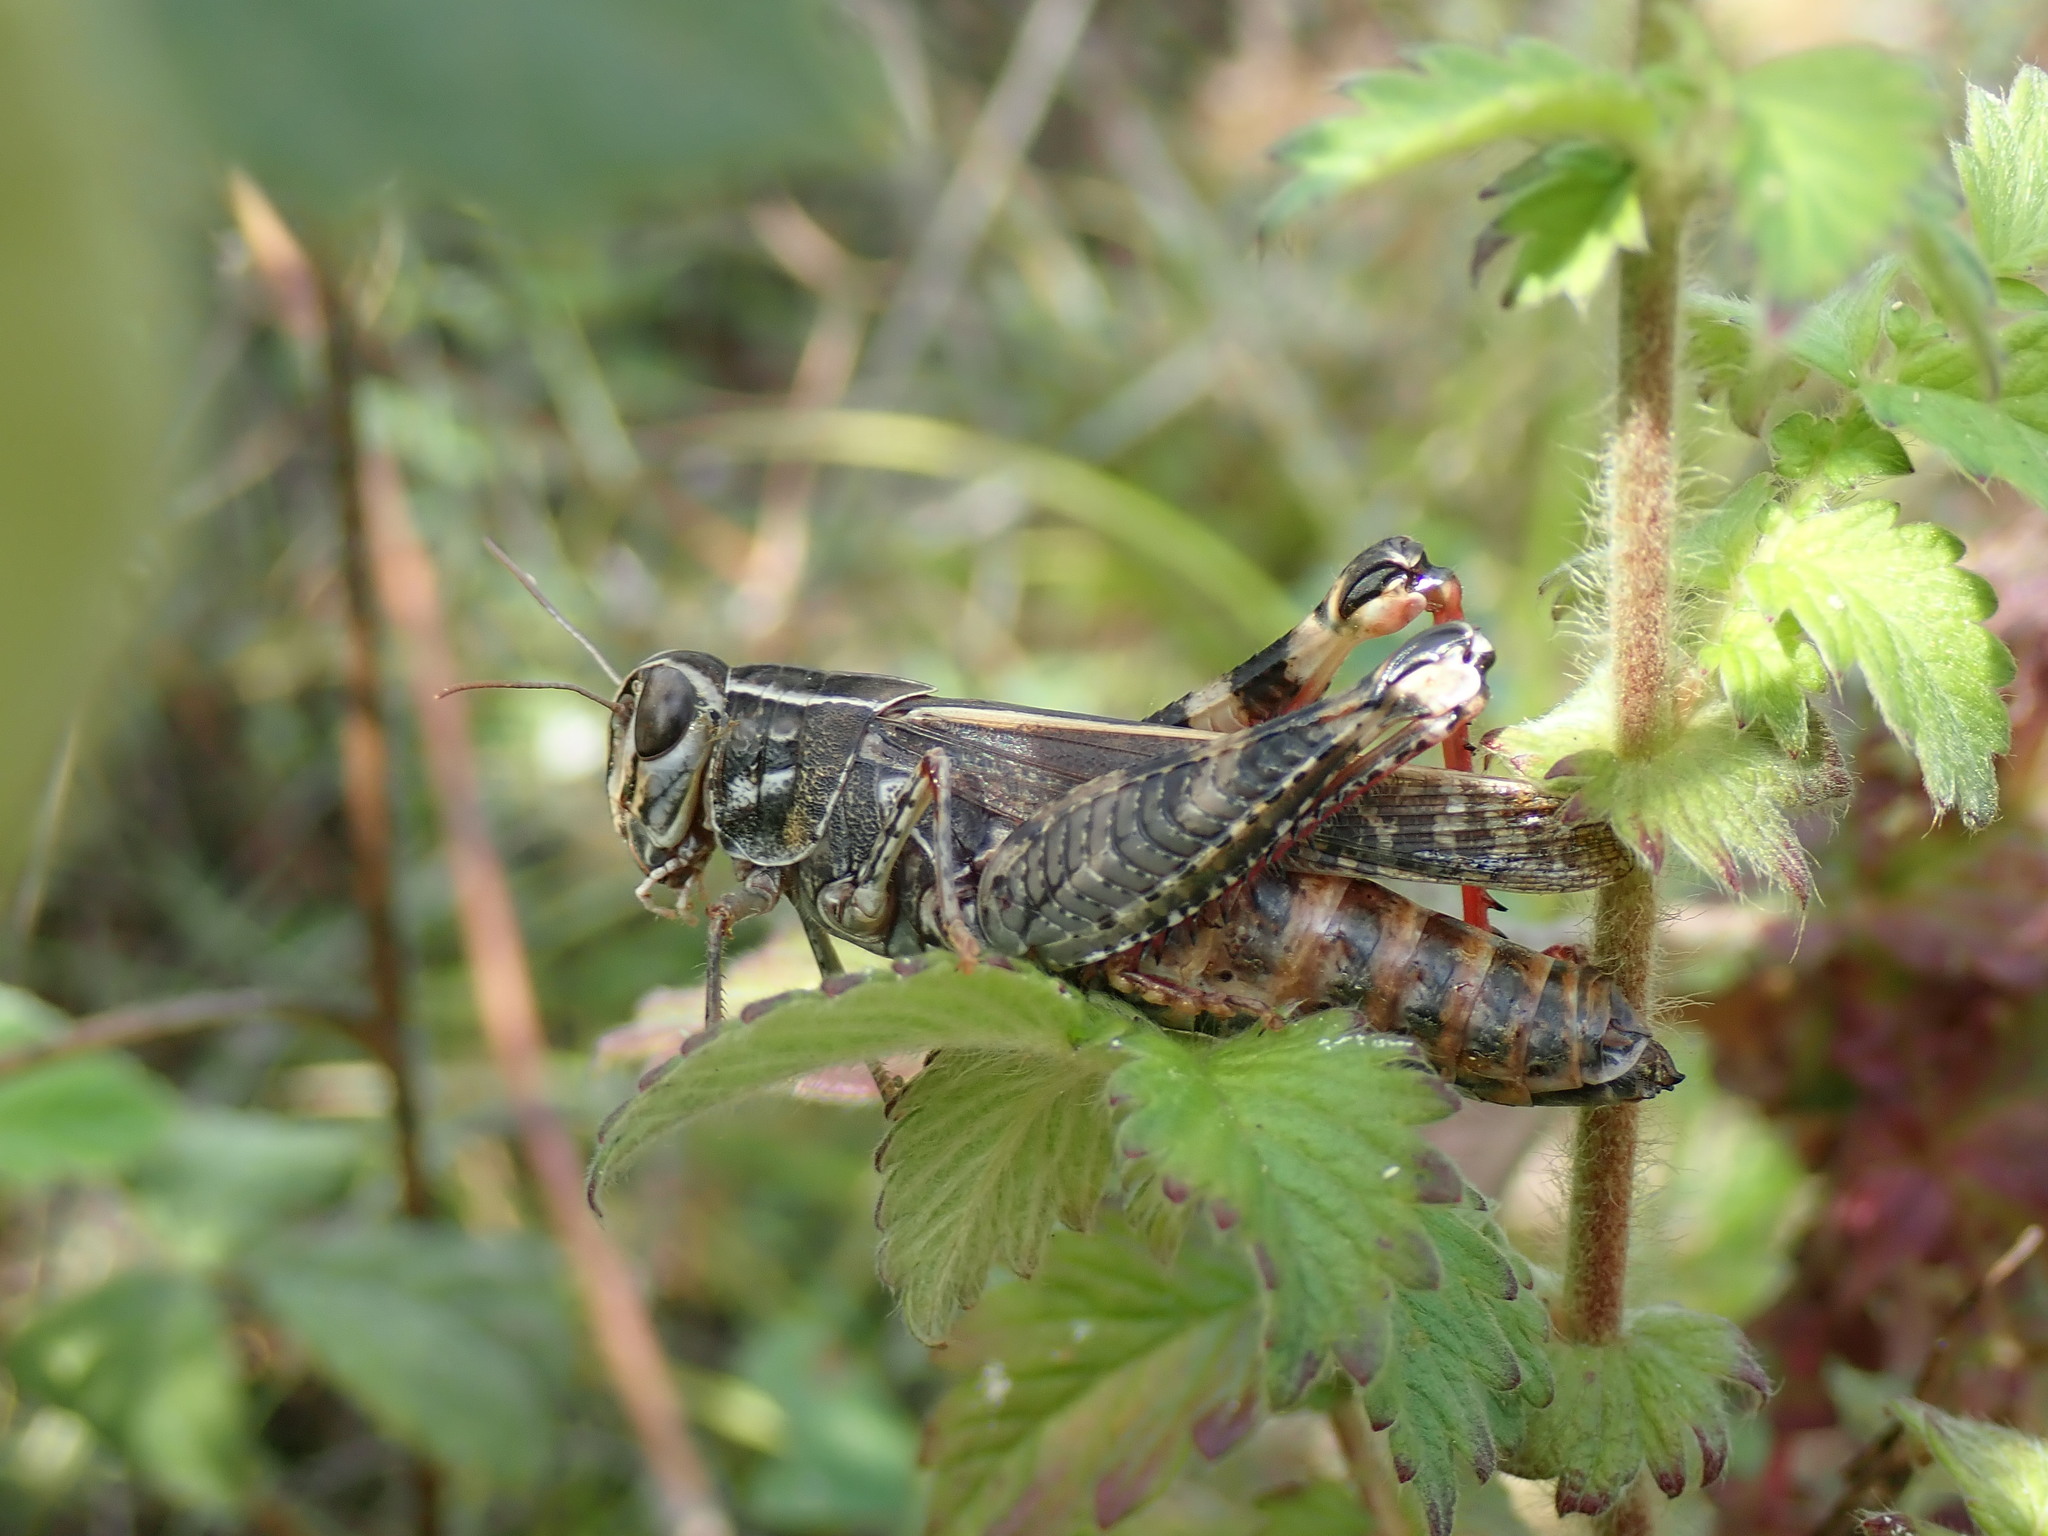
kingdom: Animalia
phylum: Arthropoda
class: Insecta
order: Orthoptera
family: Acrididae
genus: Calliptamus
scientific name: Calliptamus italicus
